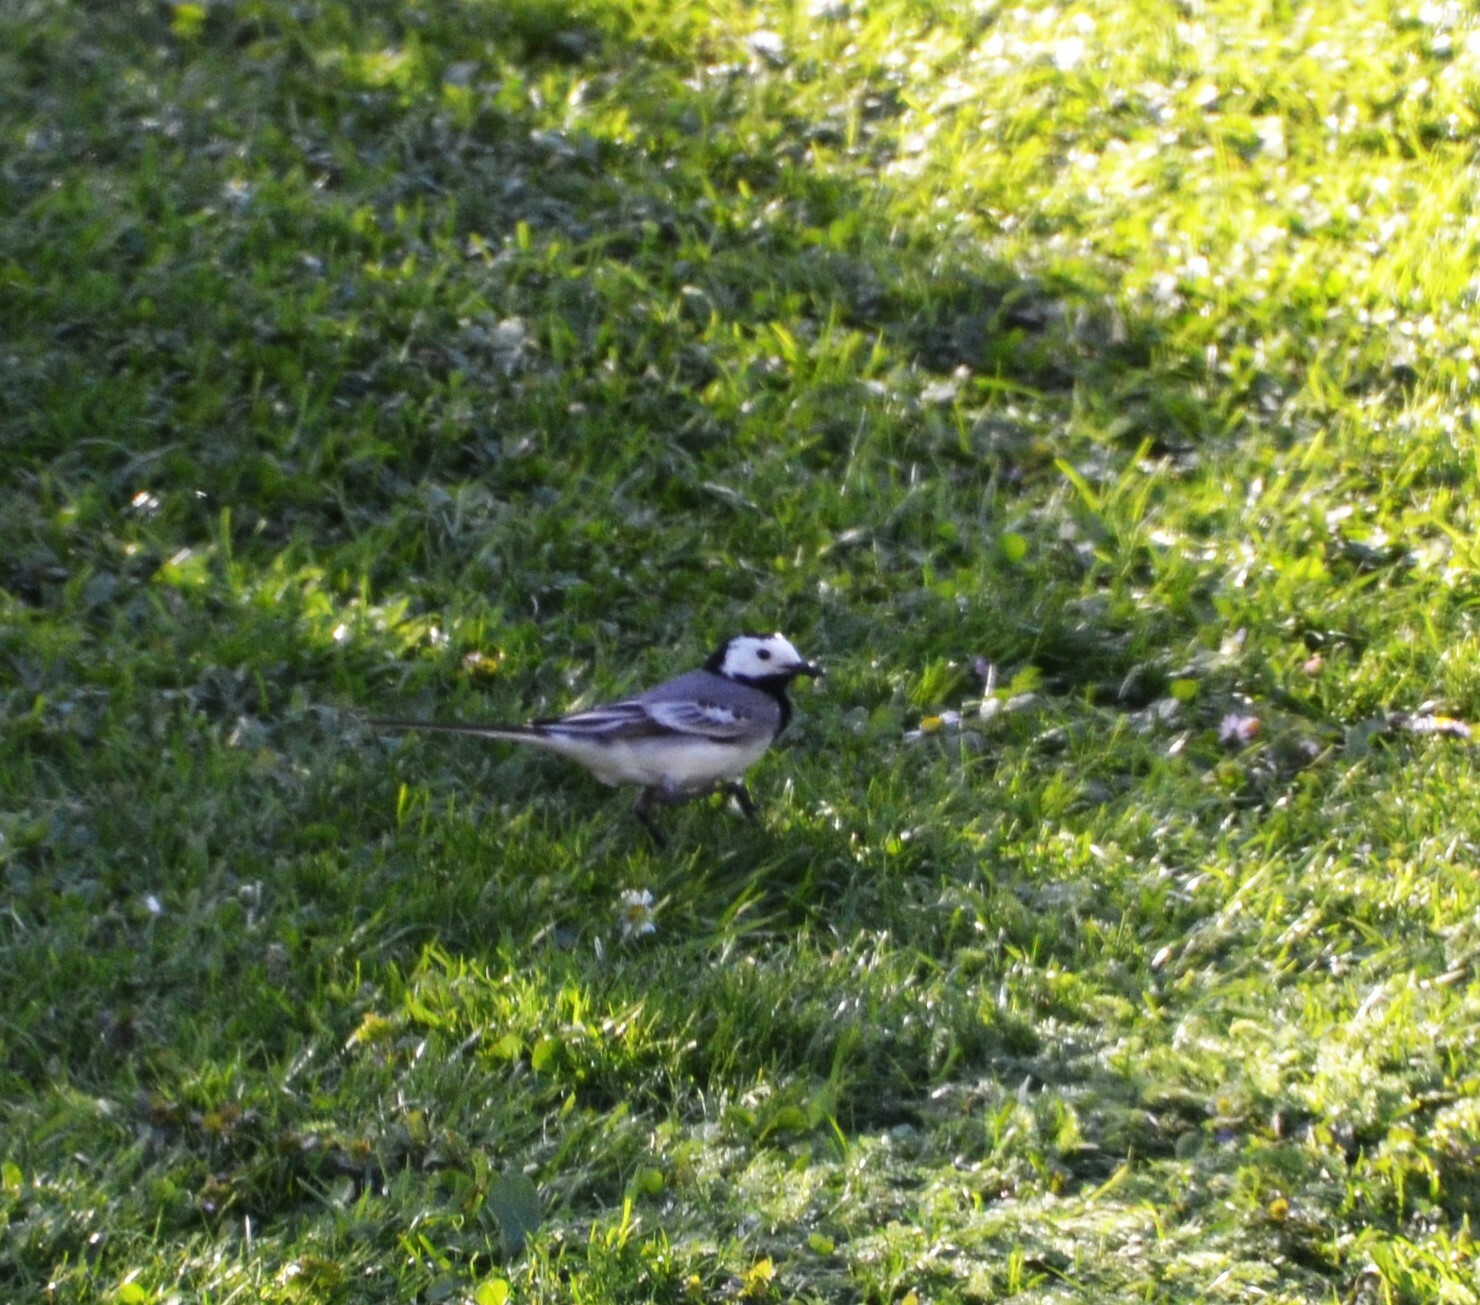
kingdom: Animalia
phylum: Chordata
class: Aves
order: Passeriformes
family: Motacillidae
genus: Motacilla
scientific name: Motacilla alba
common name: White wagtail
